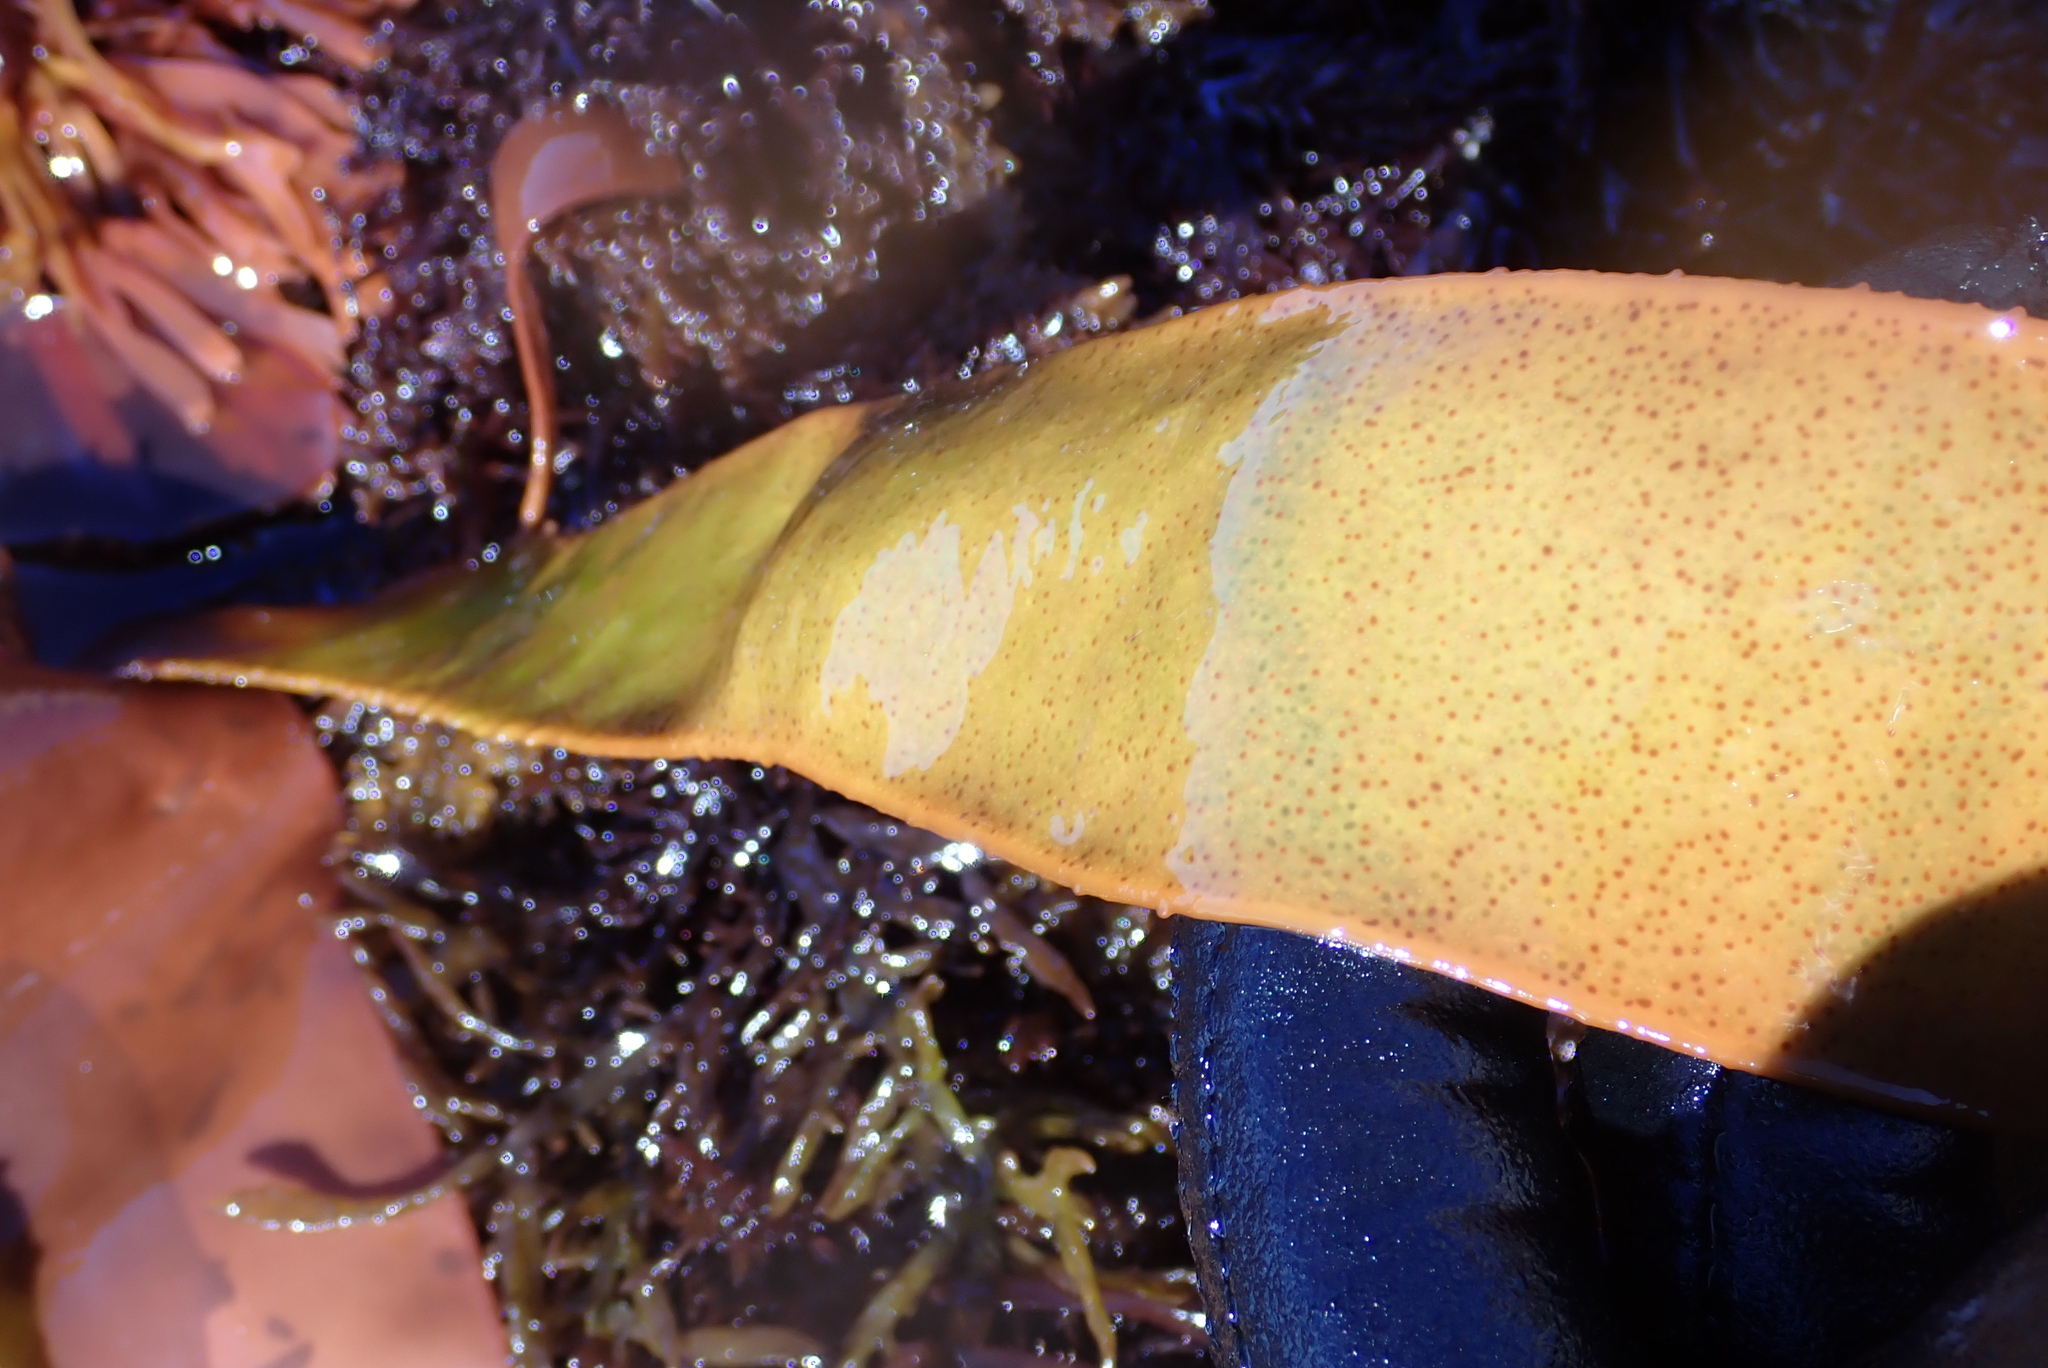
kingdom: Plantae
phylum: Rhodophyta
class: Florideophyceae
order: Gigartinales
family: Gigartinaceae
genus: Sarcothalia
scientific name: Sarcothalia radula
